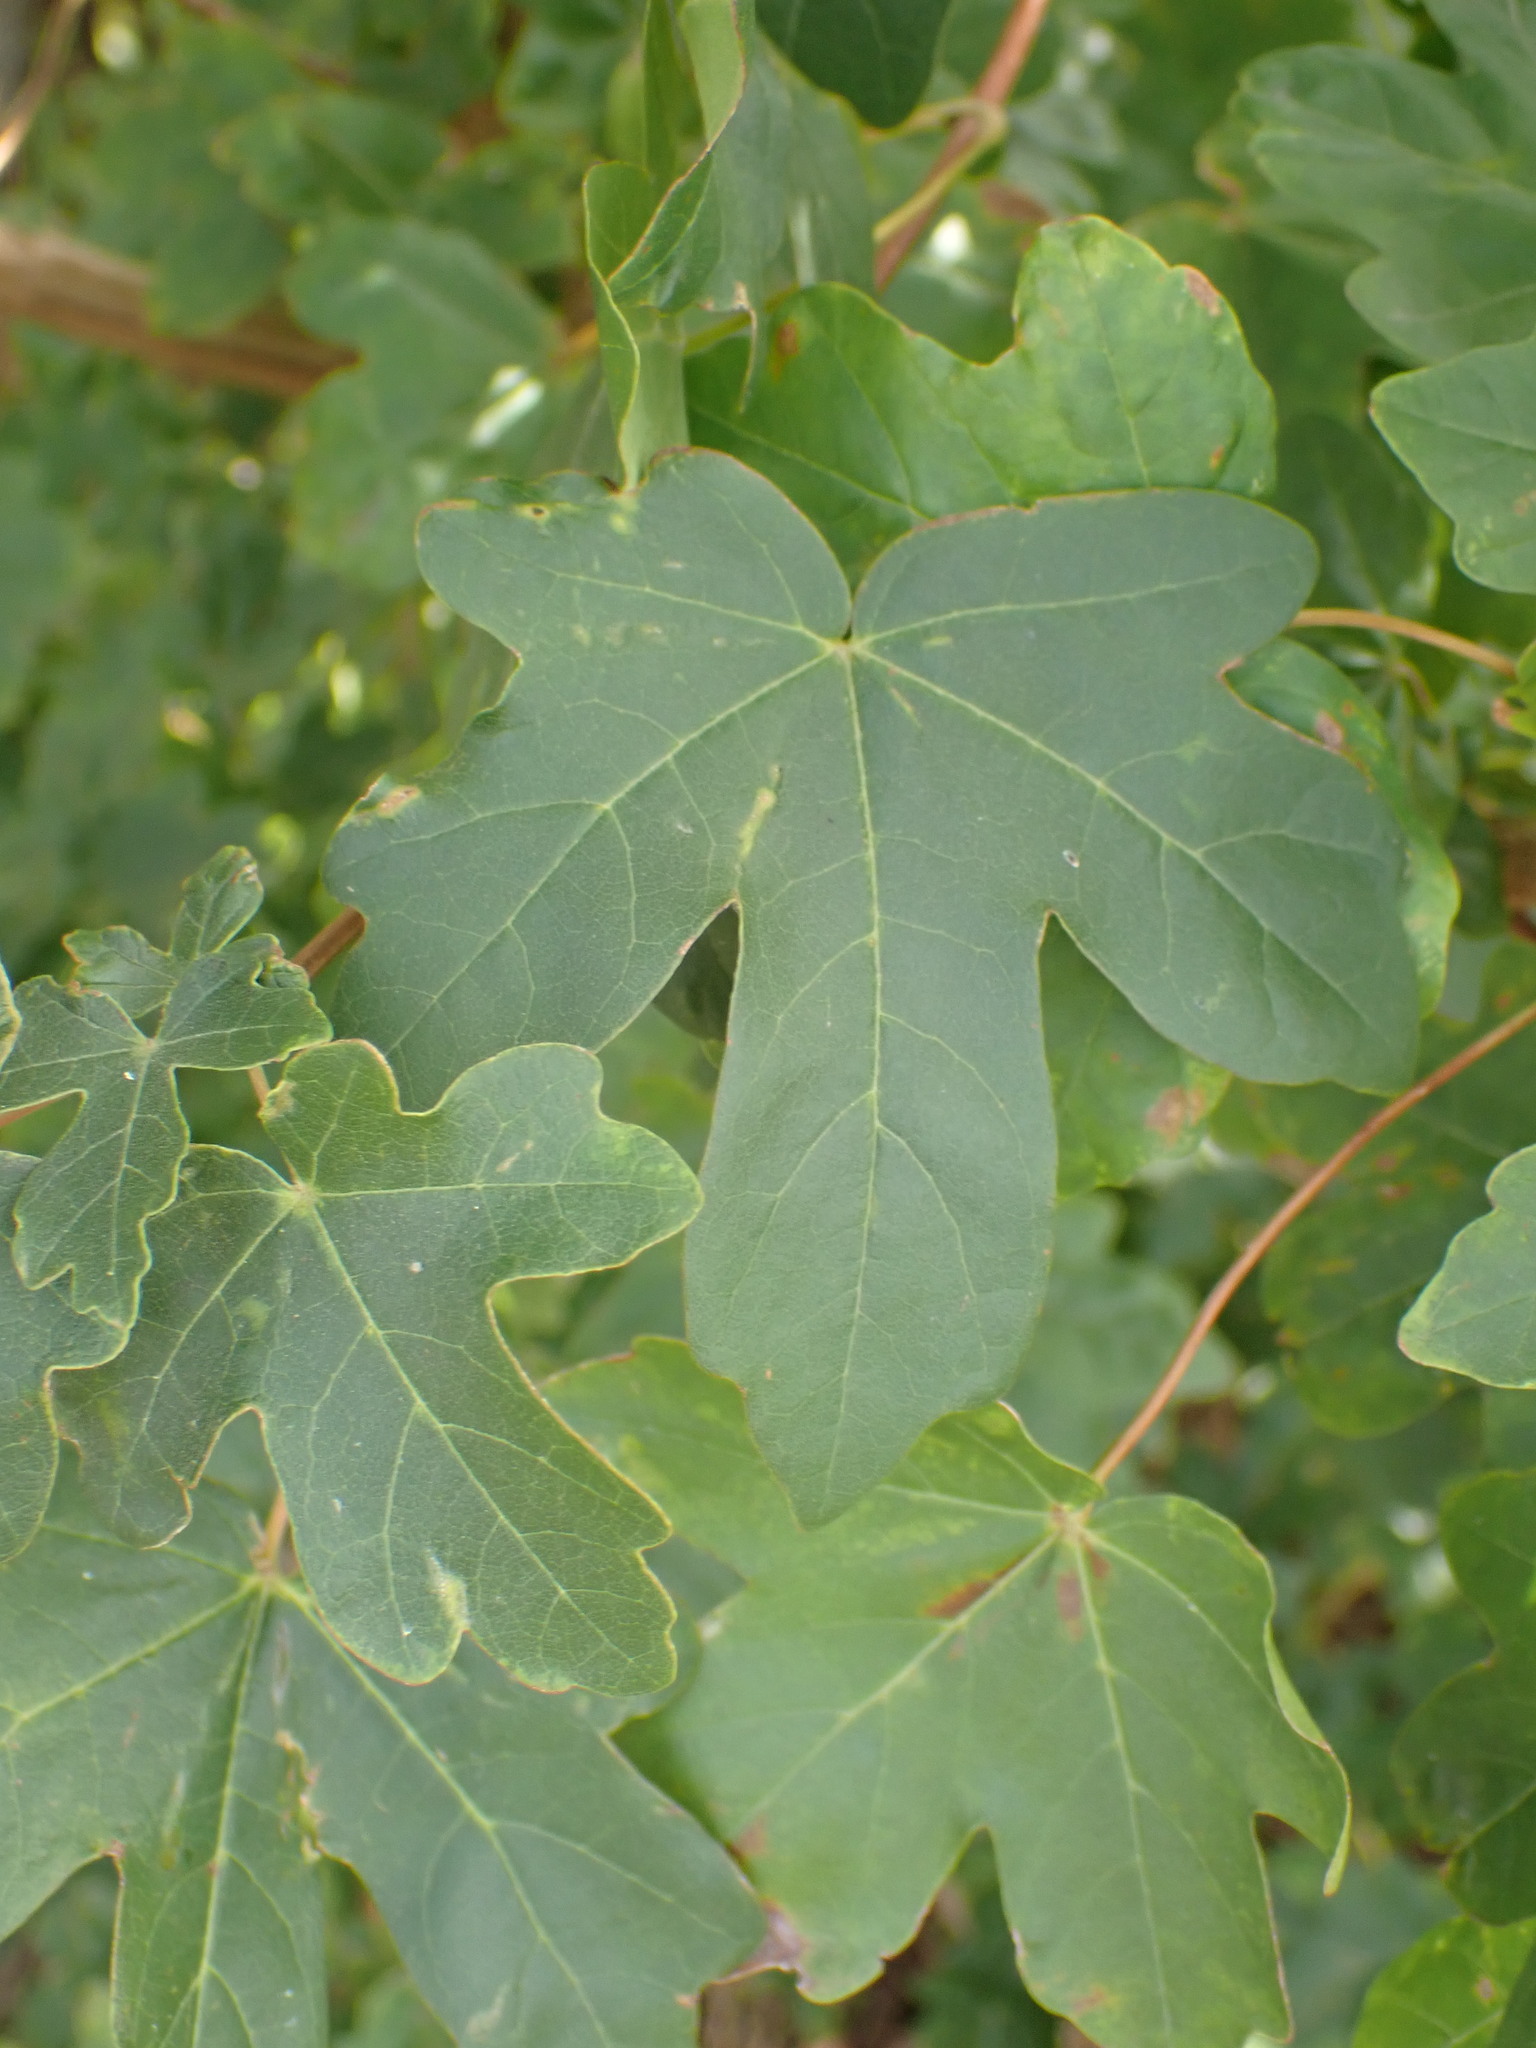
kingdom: Plantae
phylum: Tracheophyta
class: Magnoliopsida
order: Sapindales
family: Sapindaceae
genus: Acer
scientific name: Acer campestre
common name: Field maple
